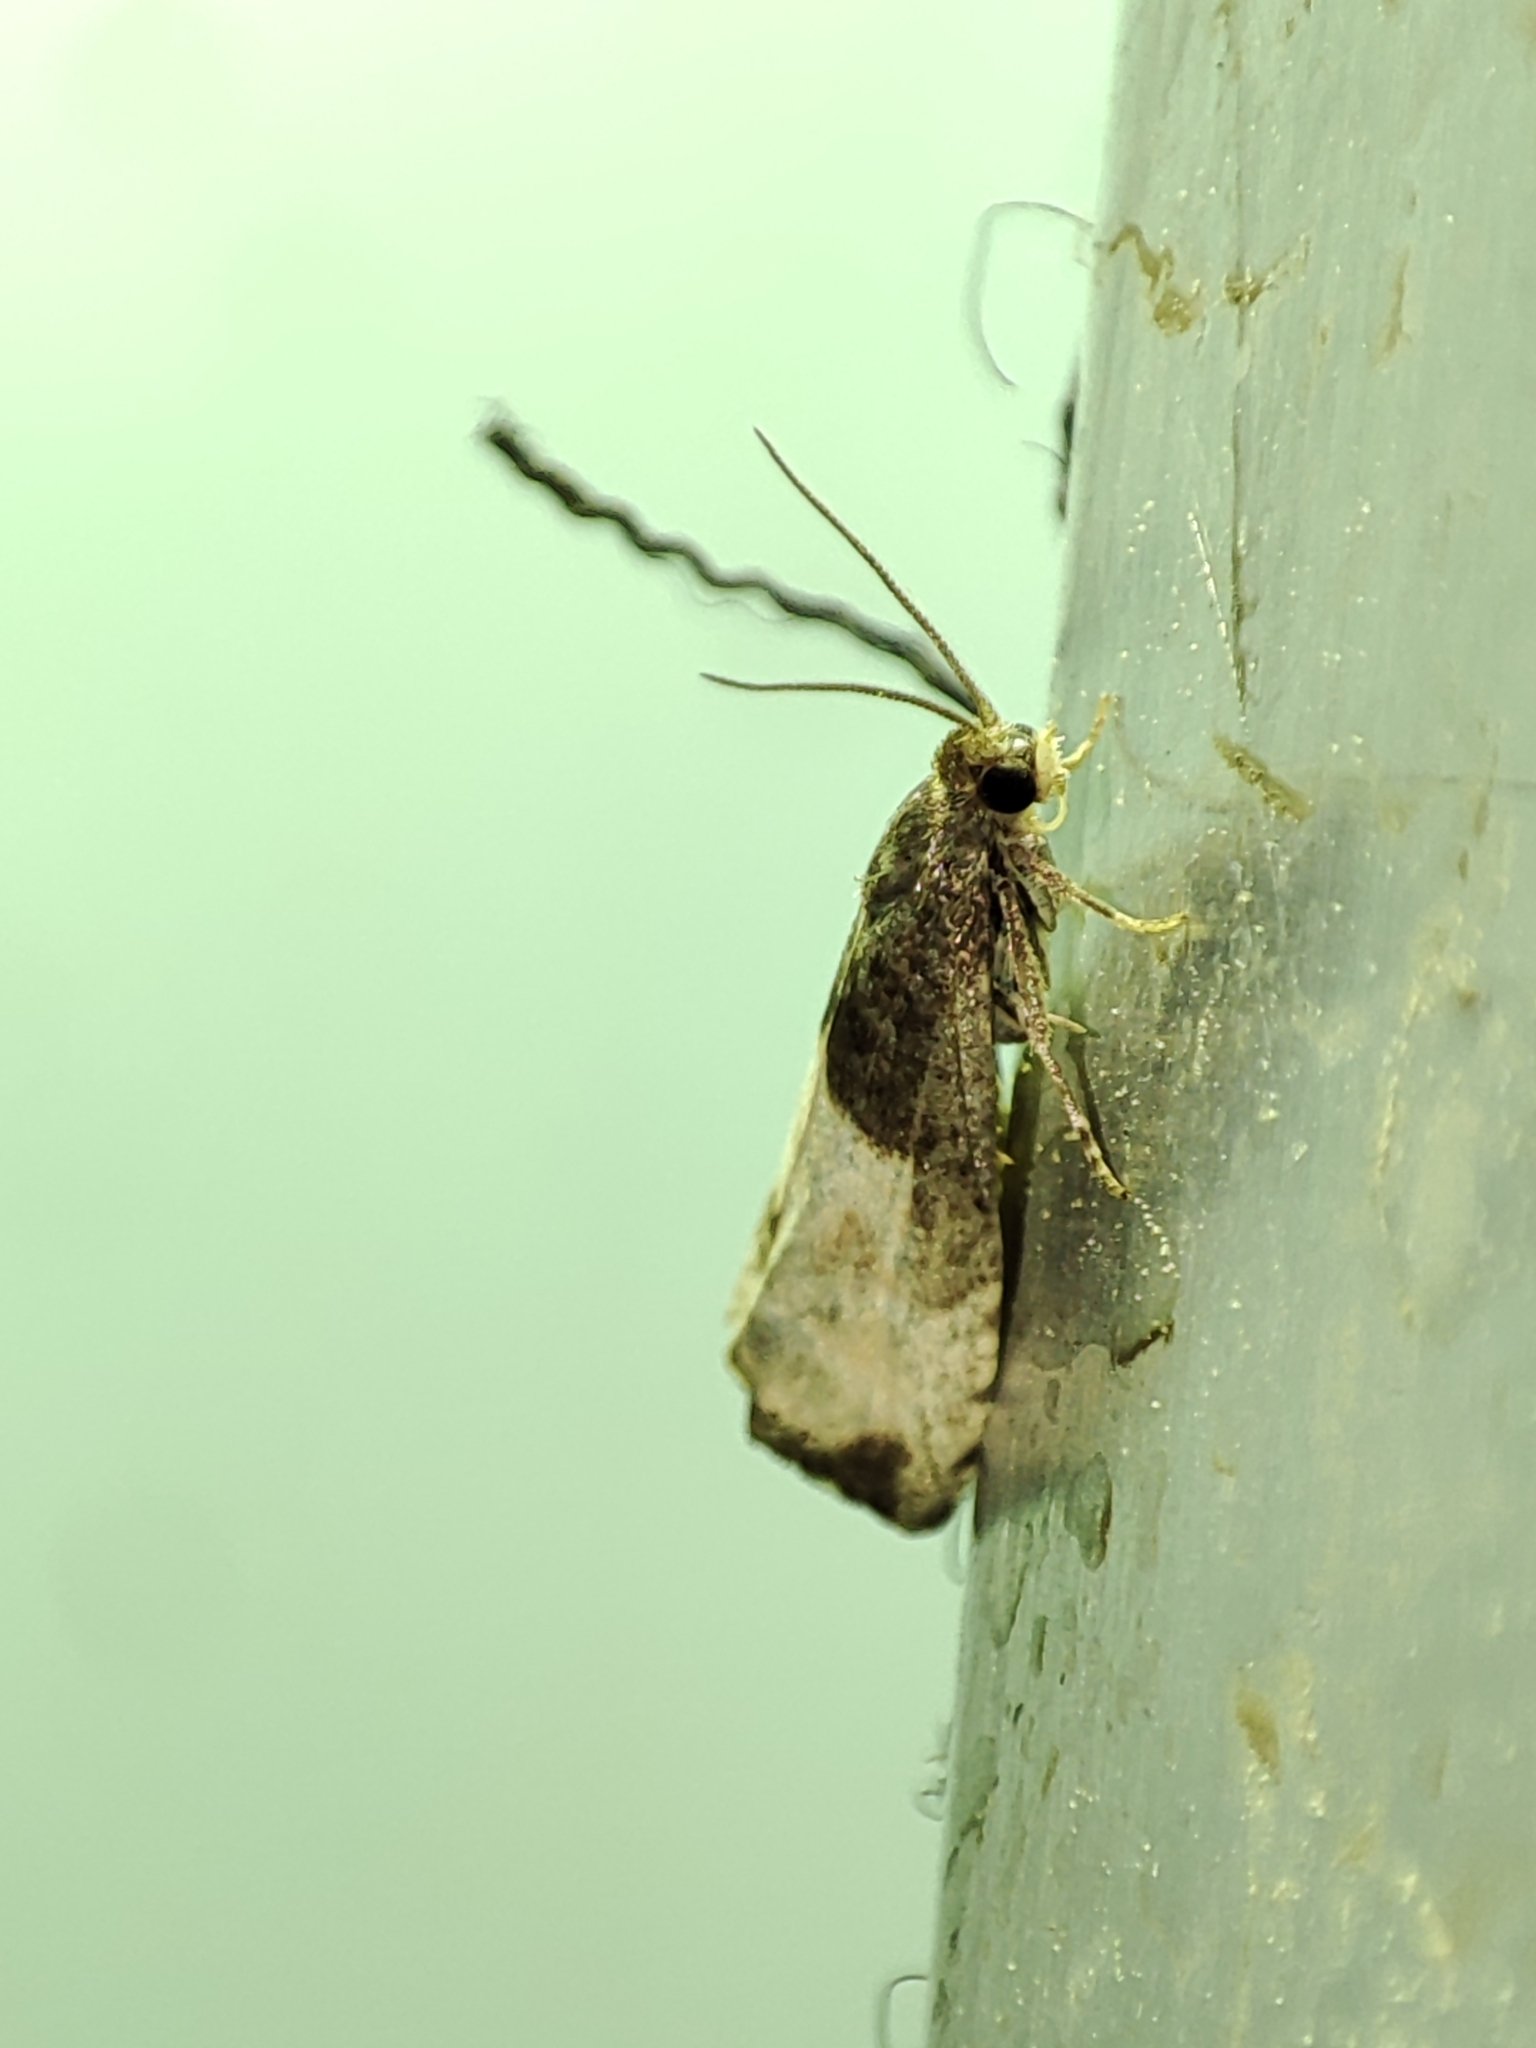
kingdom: Animalia
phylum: Arthropoda
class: Insecta
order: Lepidoptera
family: Tortricidae
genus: Notocelia
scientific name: Notocelia cynosbatella
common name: Yellow-faced bell moth
